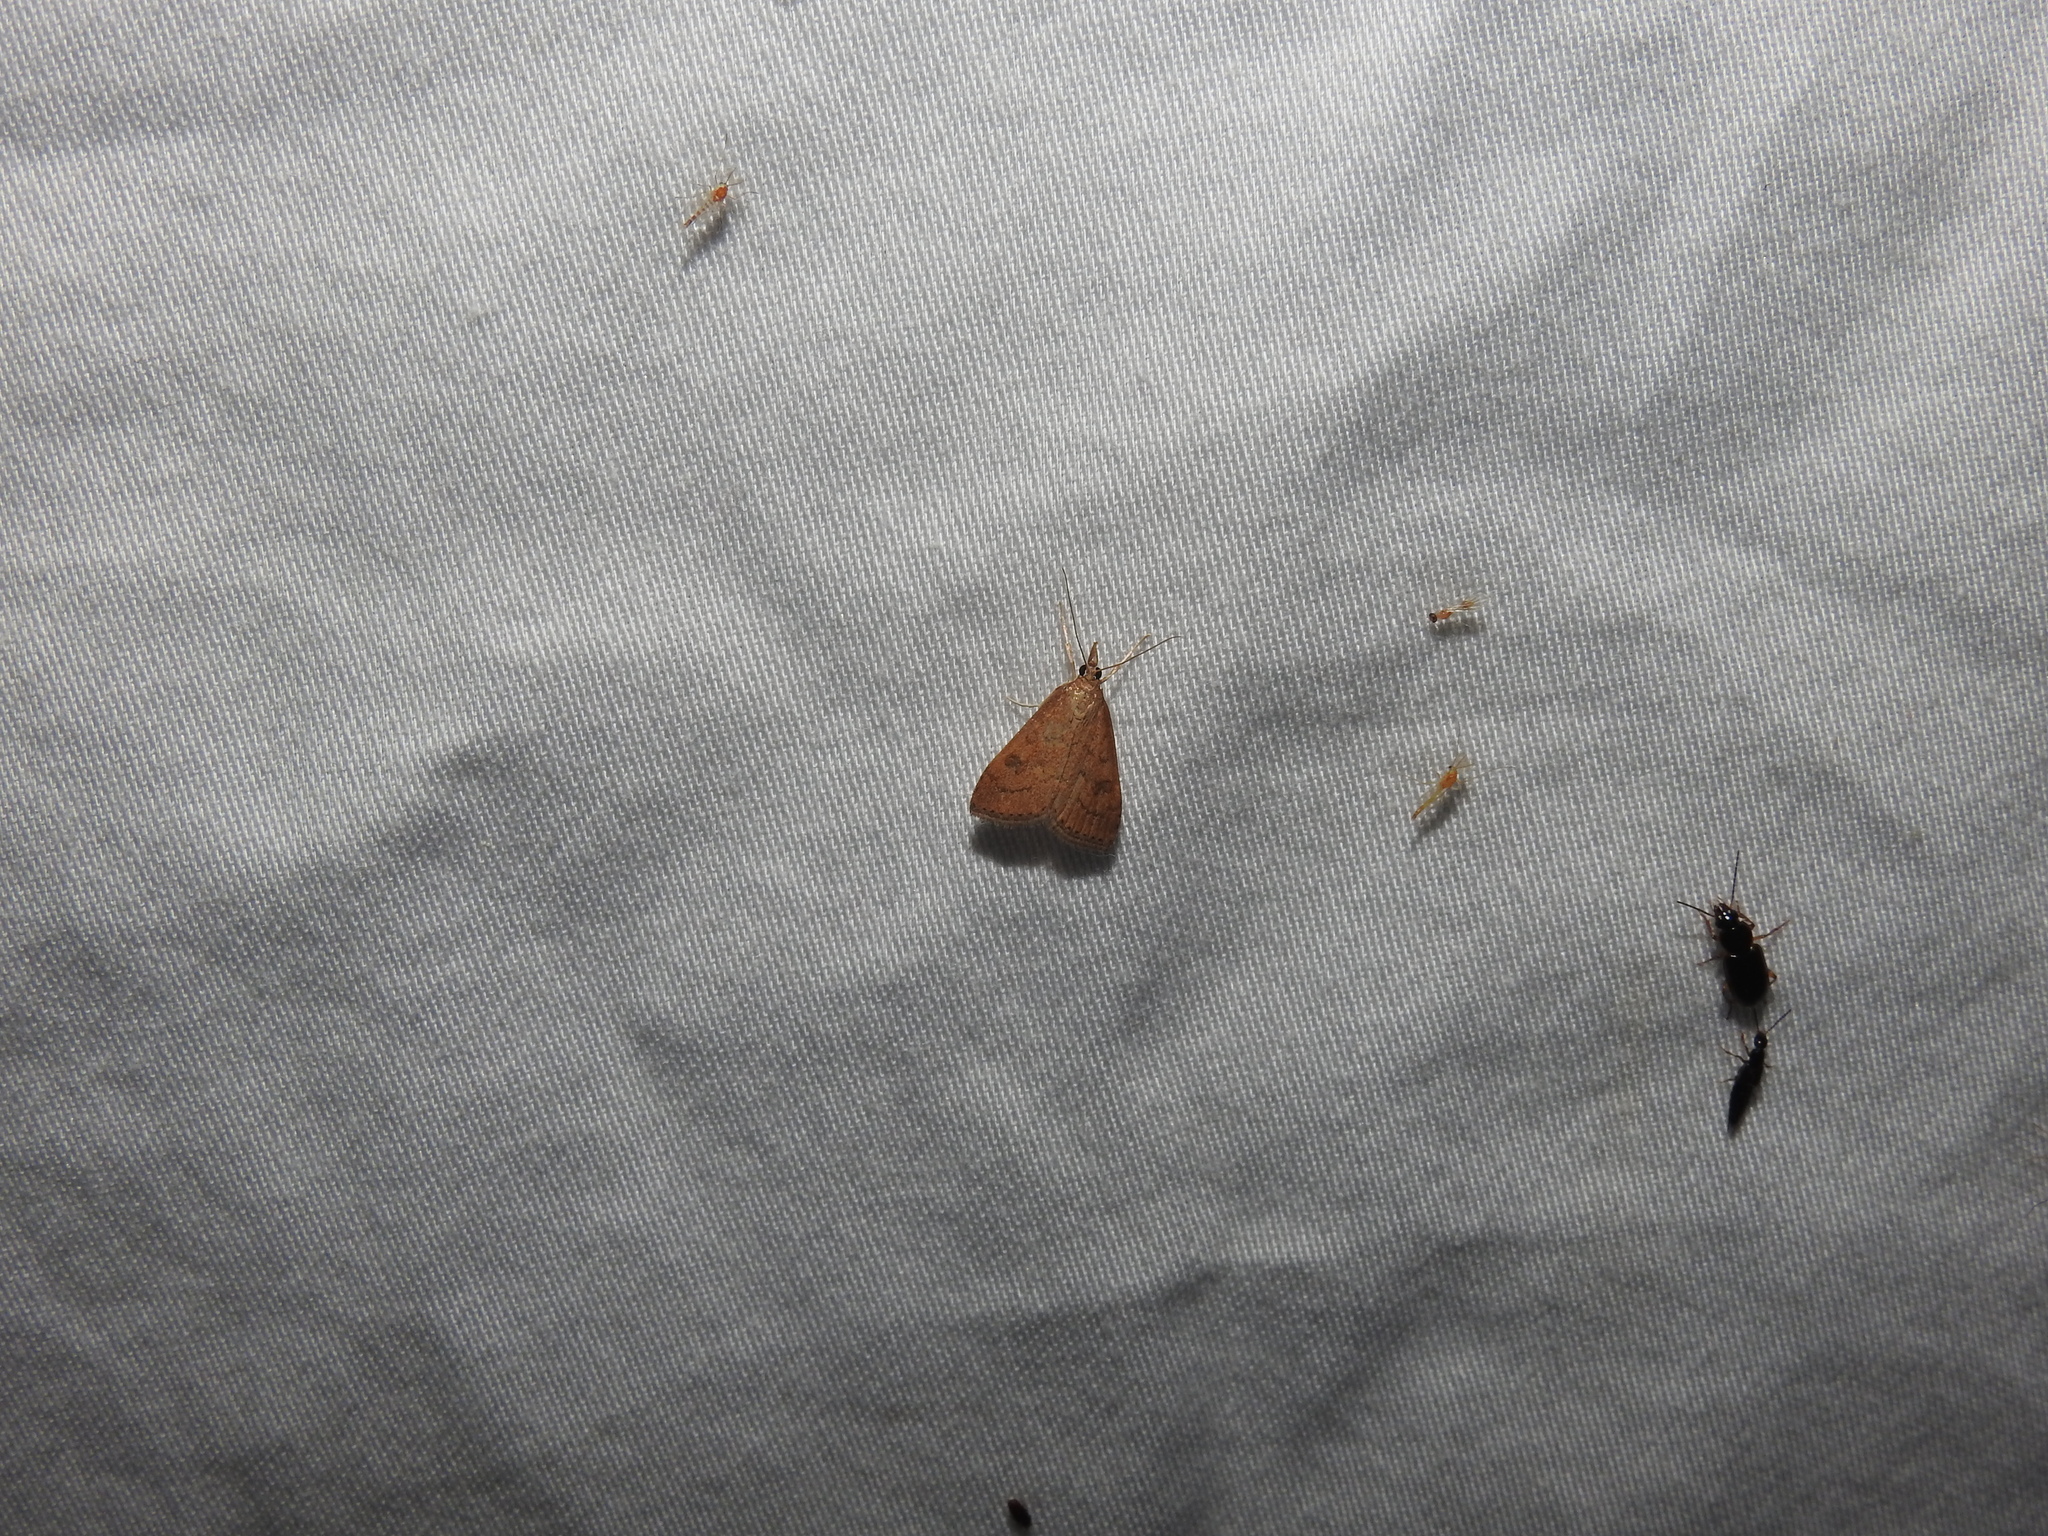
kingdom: Animalia
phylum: Arthropoda
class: Insecta
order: Lepidoptera
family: Crambidae
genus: Udea
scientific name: Udea rubigalis
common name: Celery leaftier moth
